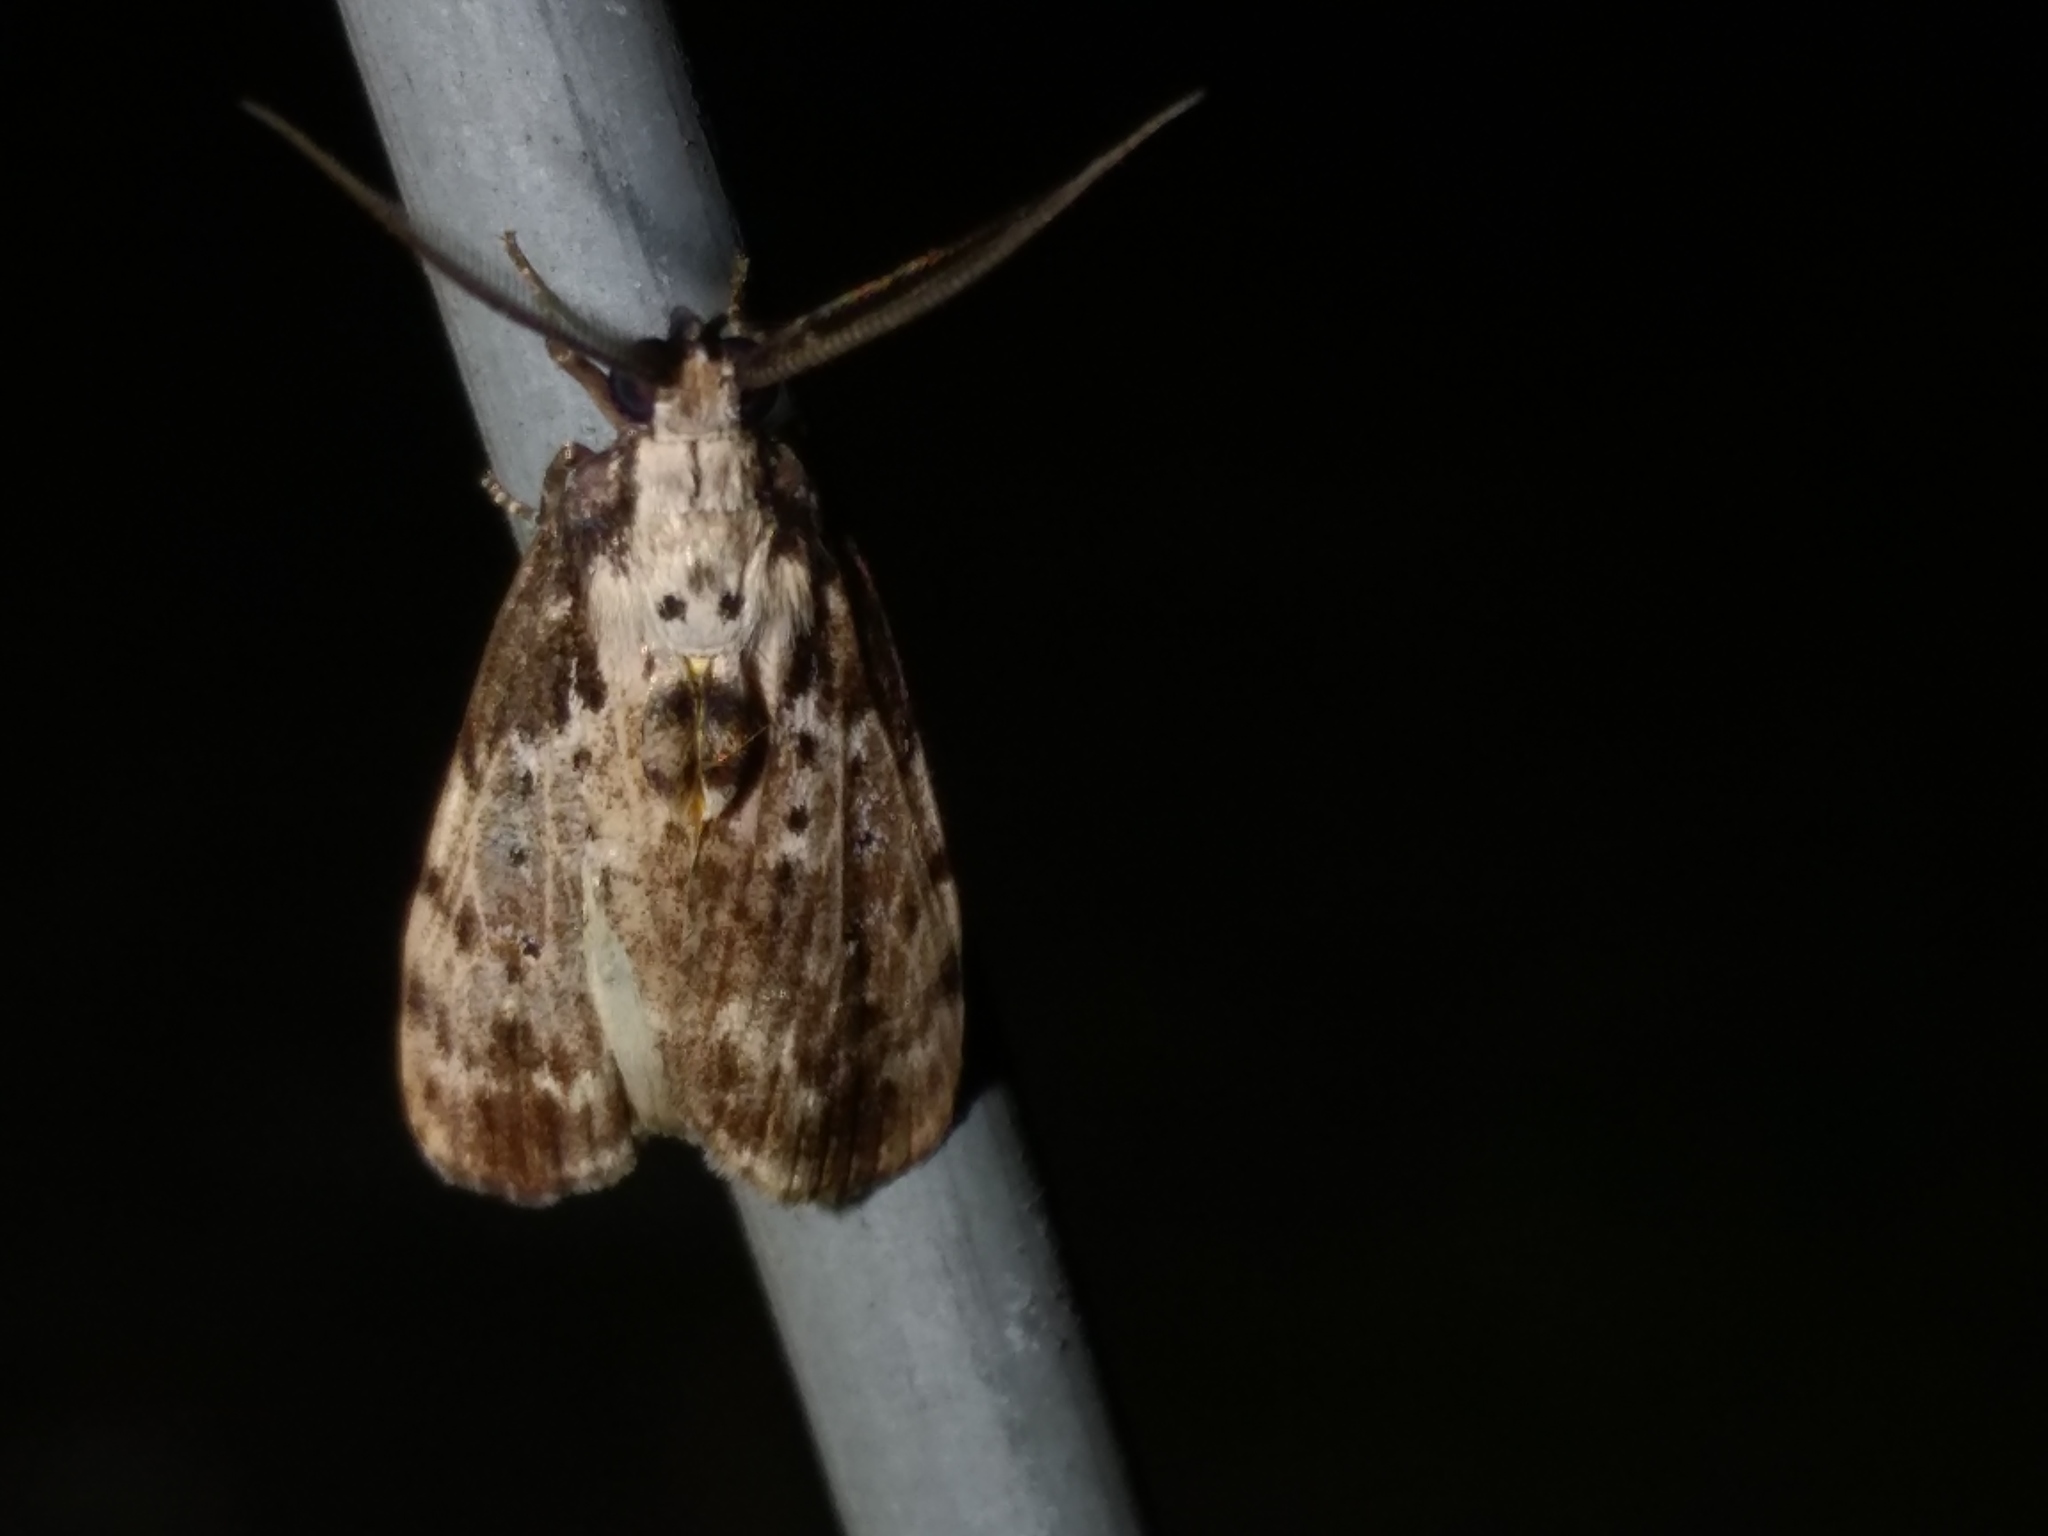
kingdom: Animalia
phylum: Arthropoda
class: Insecta
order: Lepidoptera
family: Erebidae
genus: Digama
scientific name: Digama Sommeria marmorea
